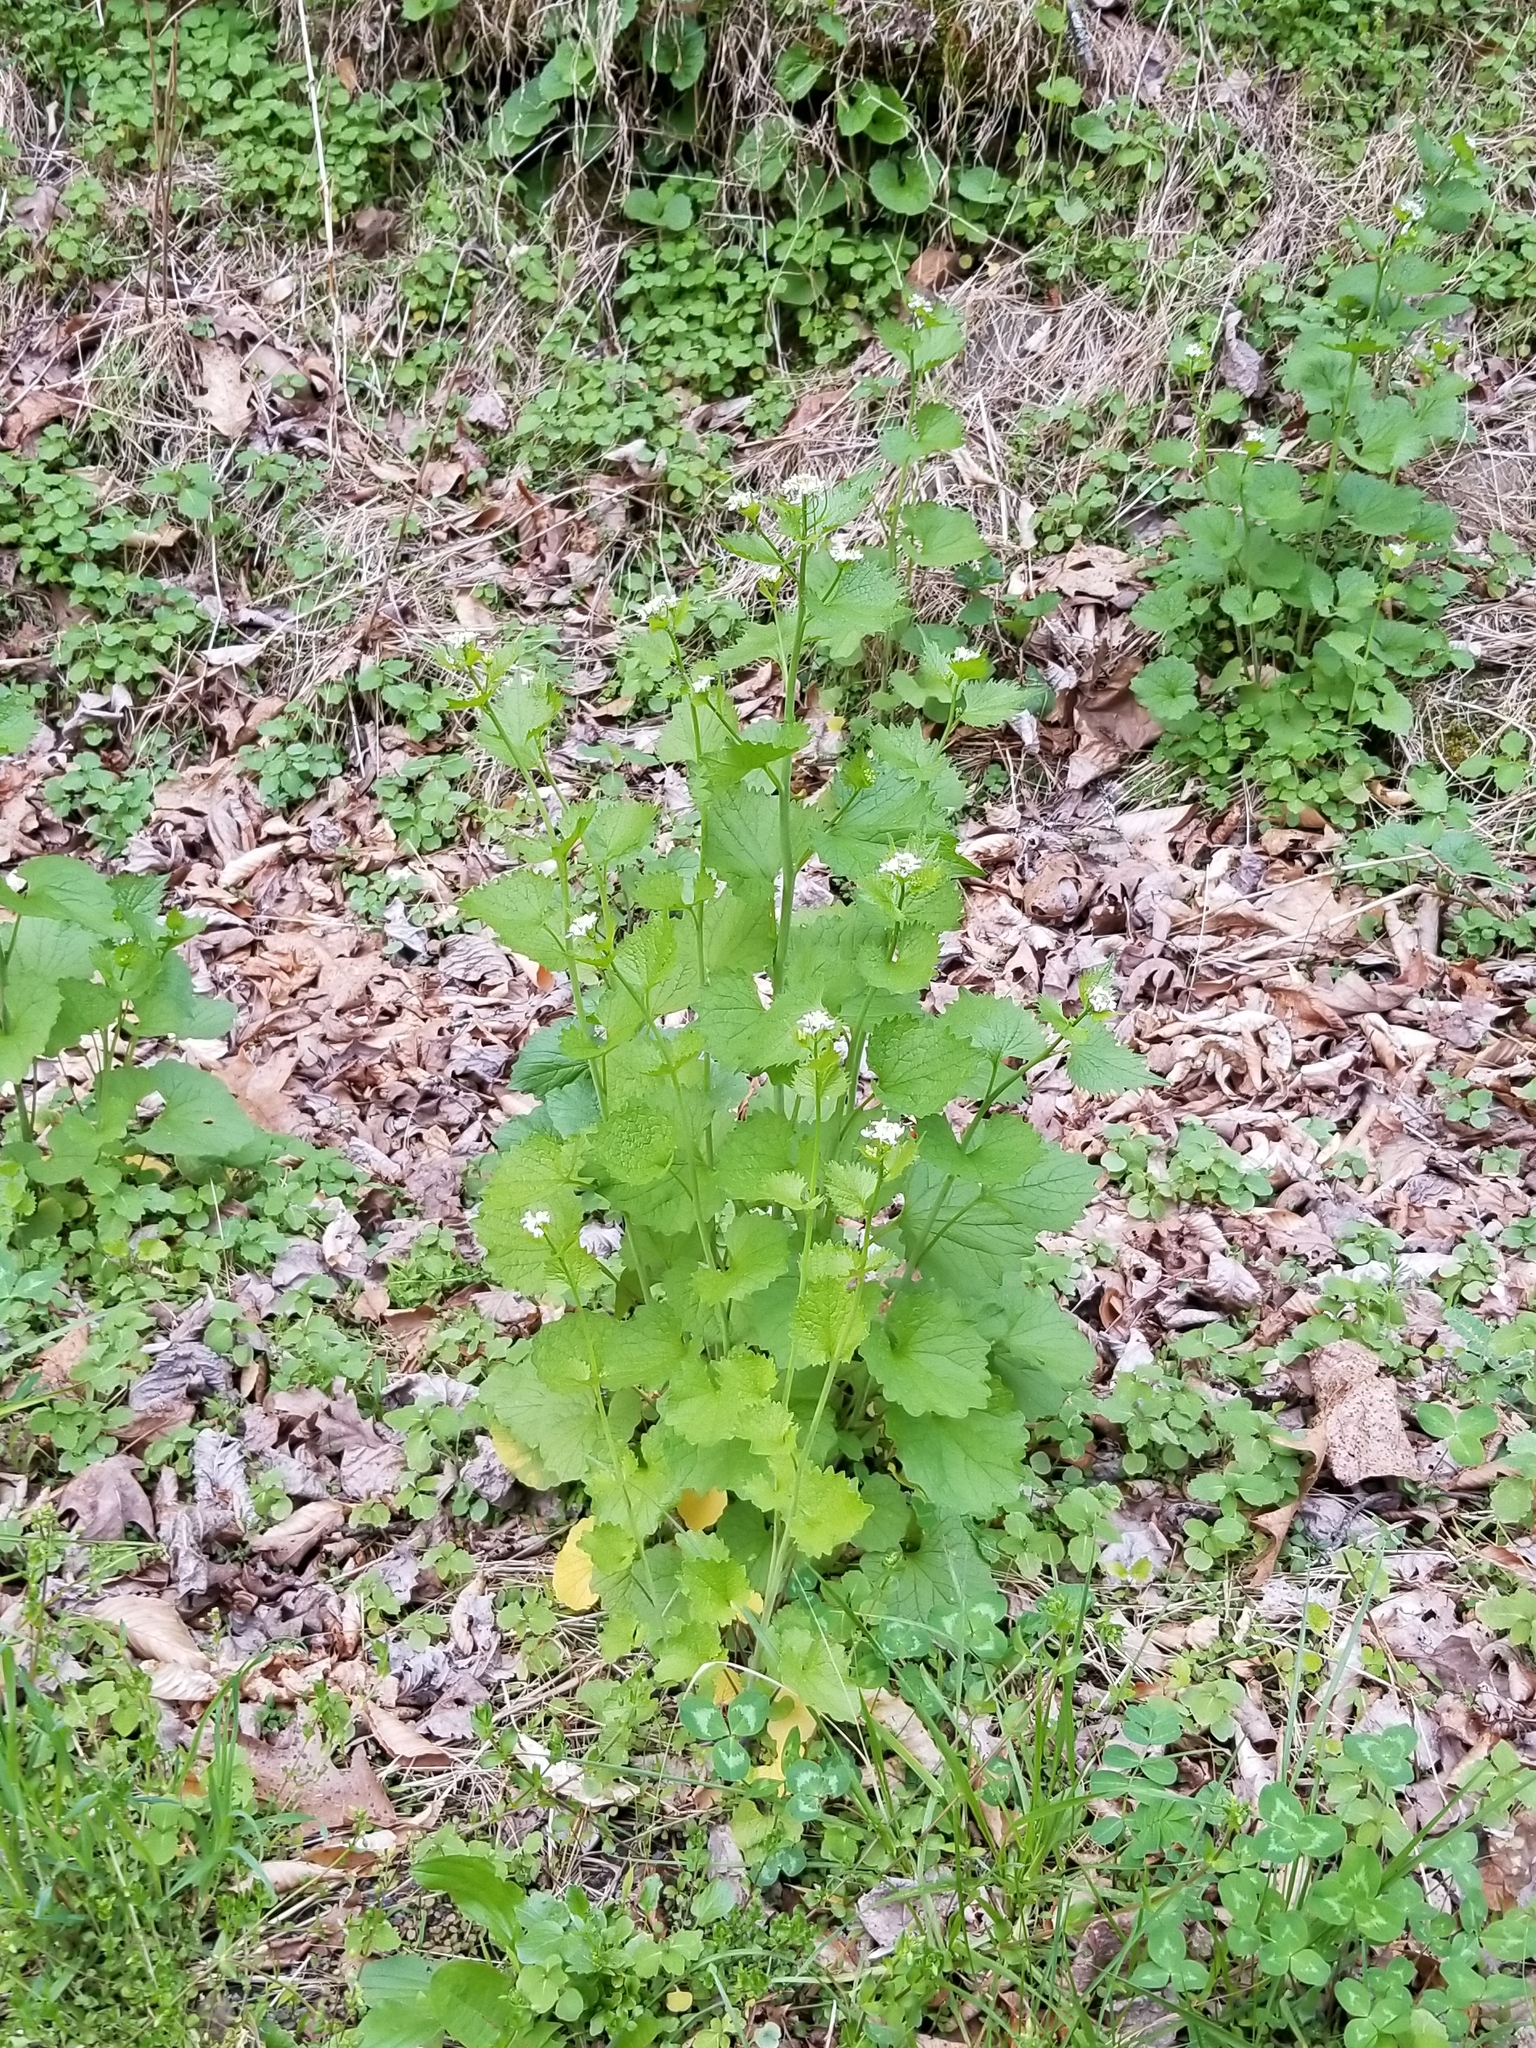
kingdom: Plantae
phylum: Tracheophyta
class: Magnoliopsida
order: Brassicales
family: Brassicaceae
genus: Alliaria
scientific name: Alliaria petiolata
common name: Garlic mustard
